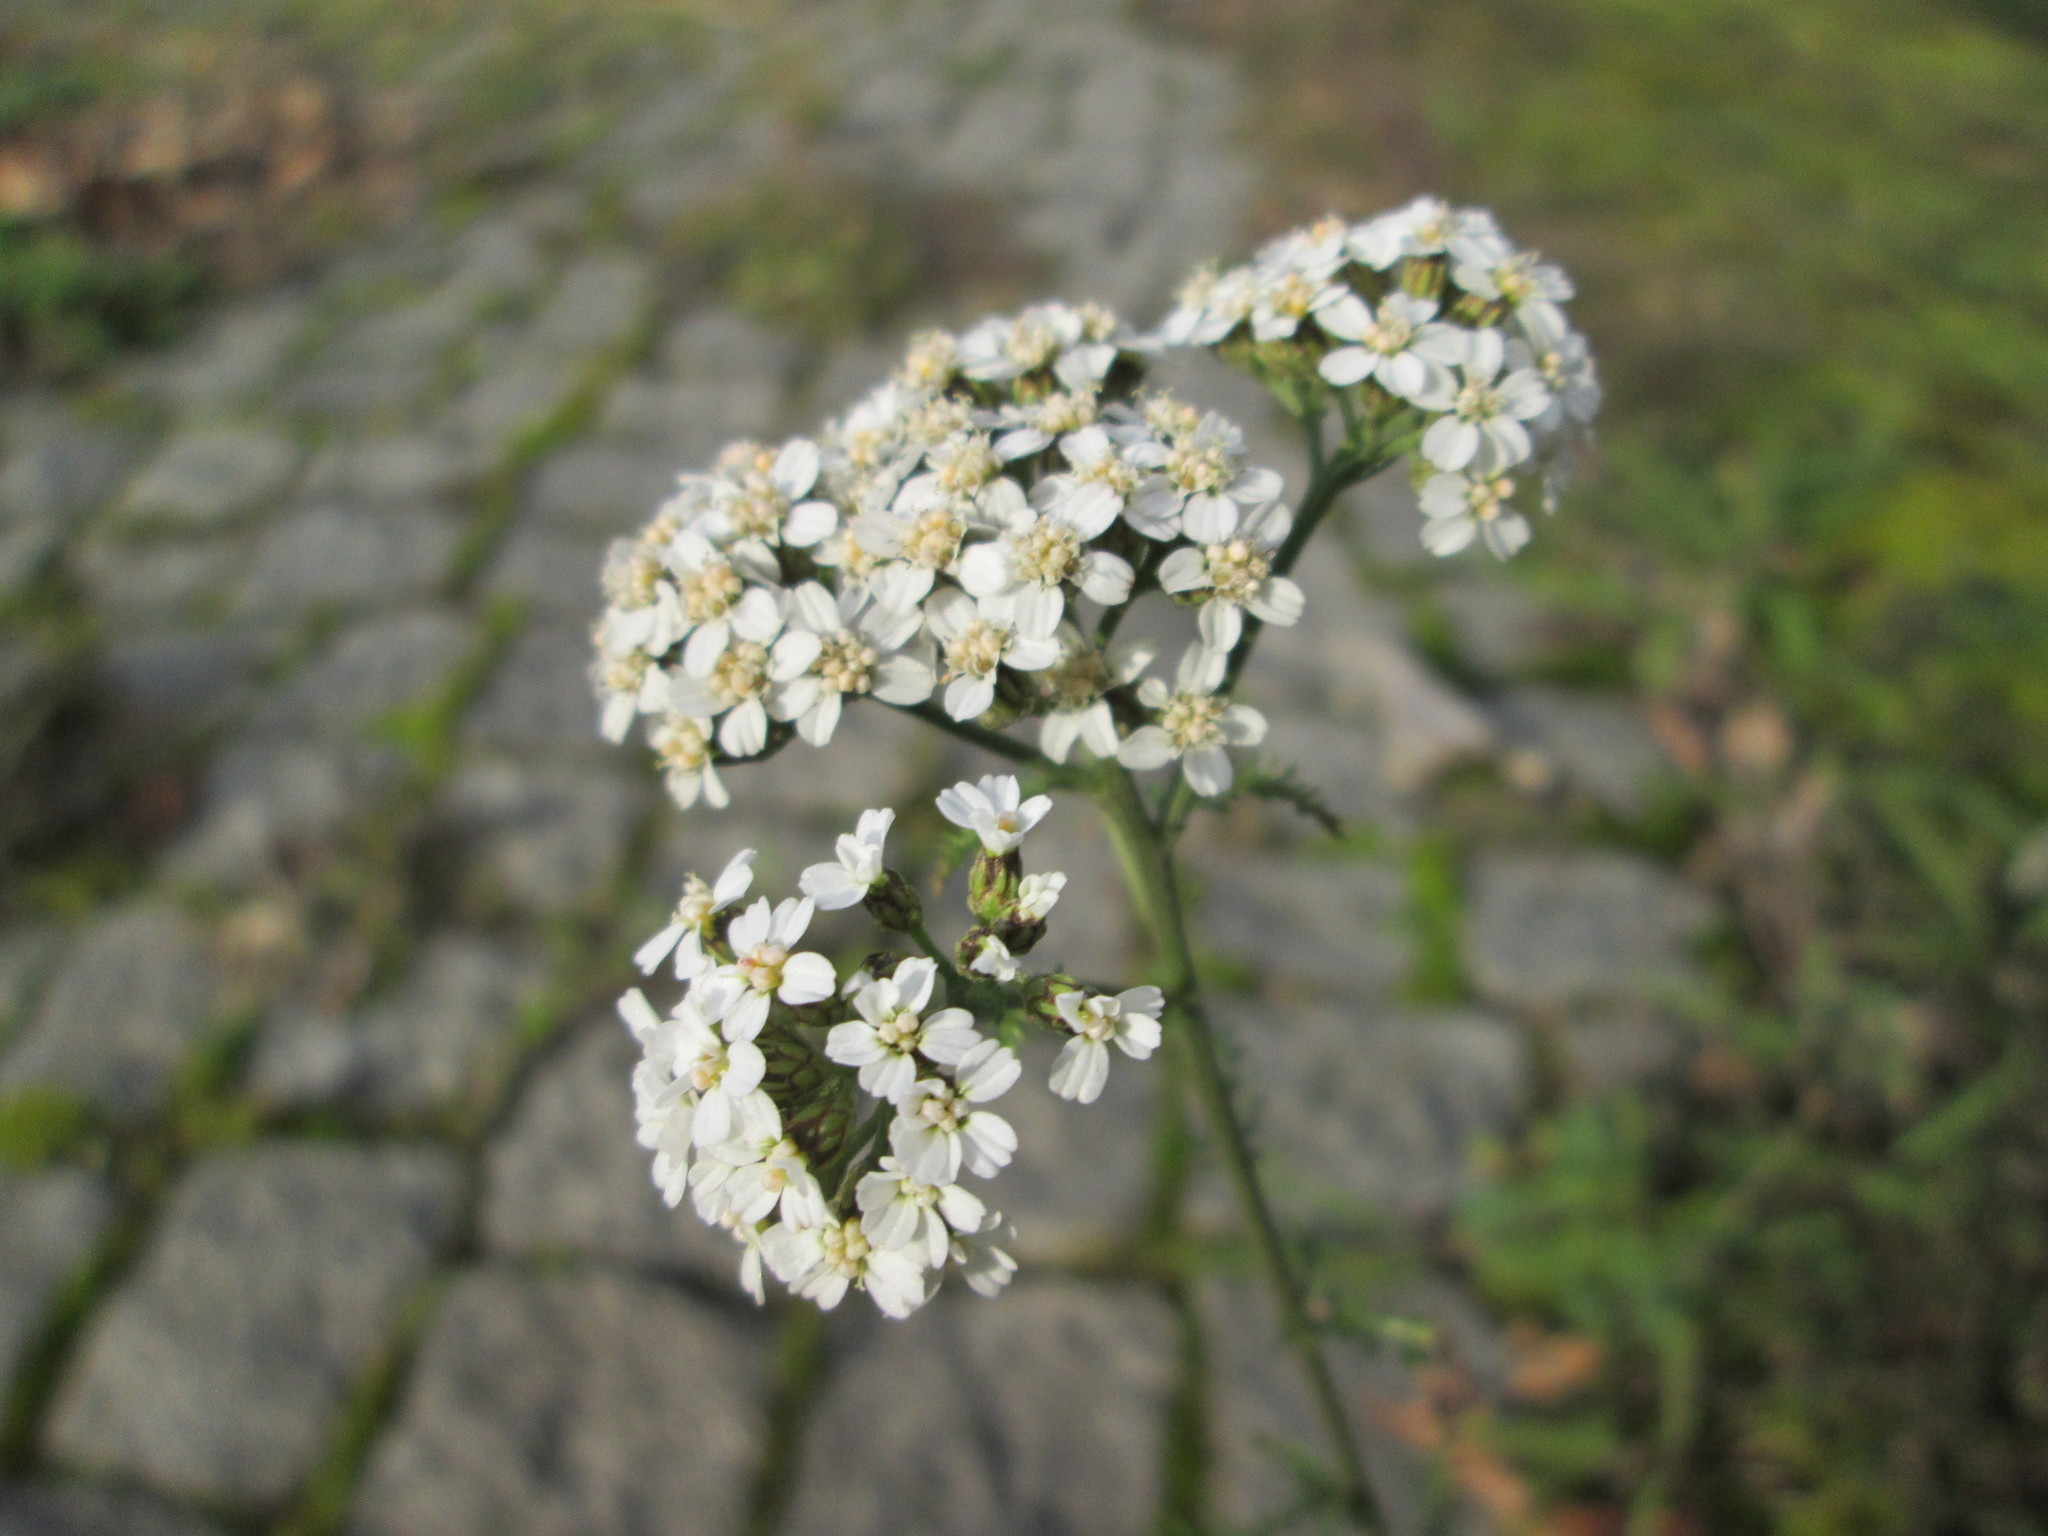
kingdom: Plantae
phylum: Tracheophyta
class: Magnoliopsida
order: Asterales
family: Asteraceae
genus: Achillea
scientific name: Achillea millefolium
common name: Yarrow
